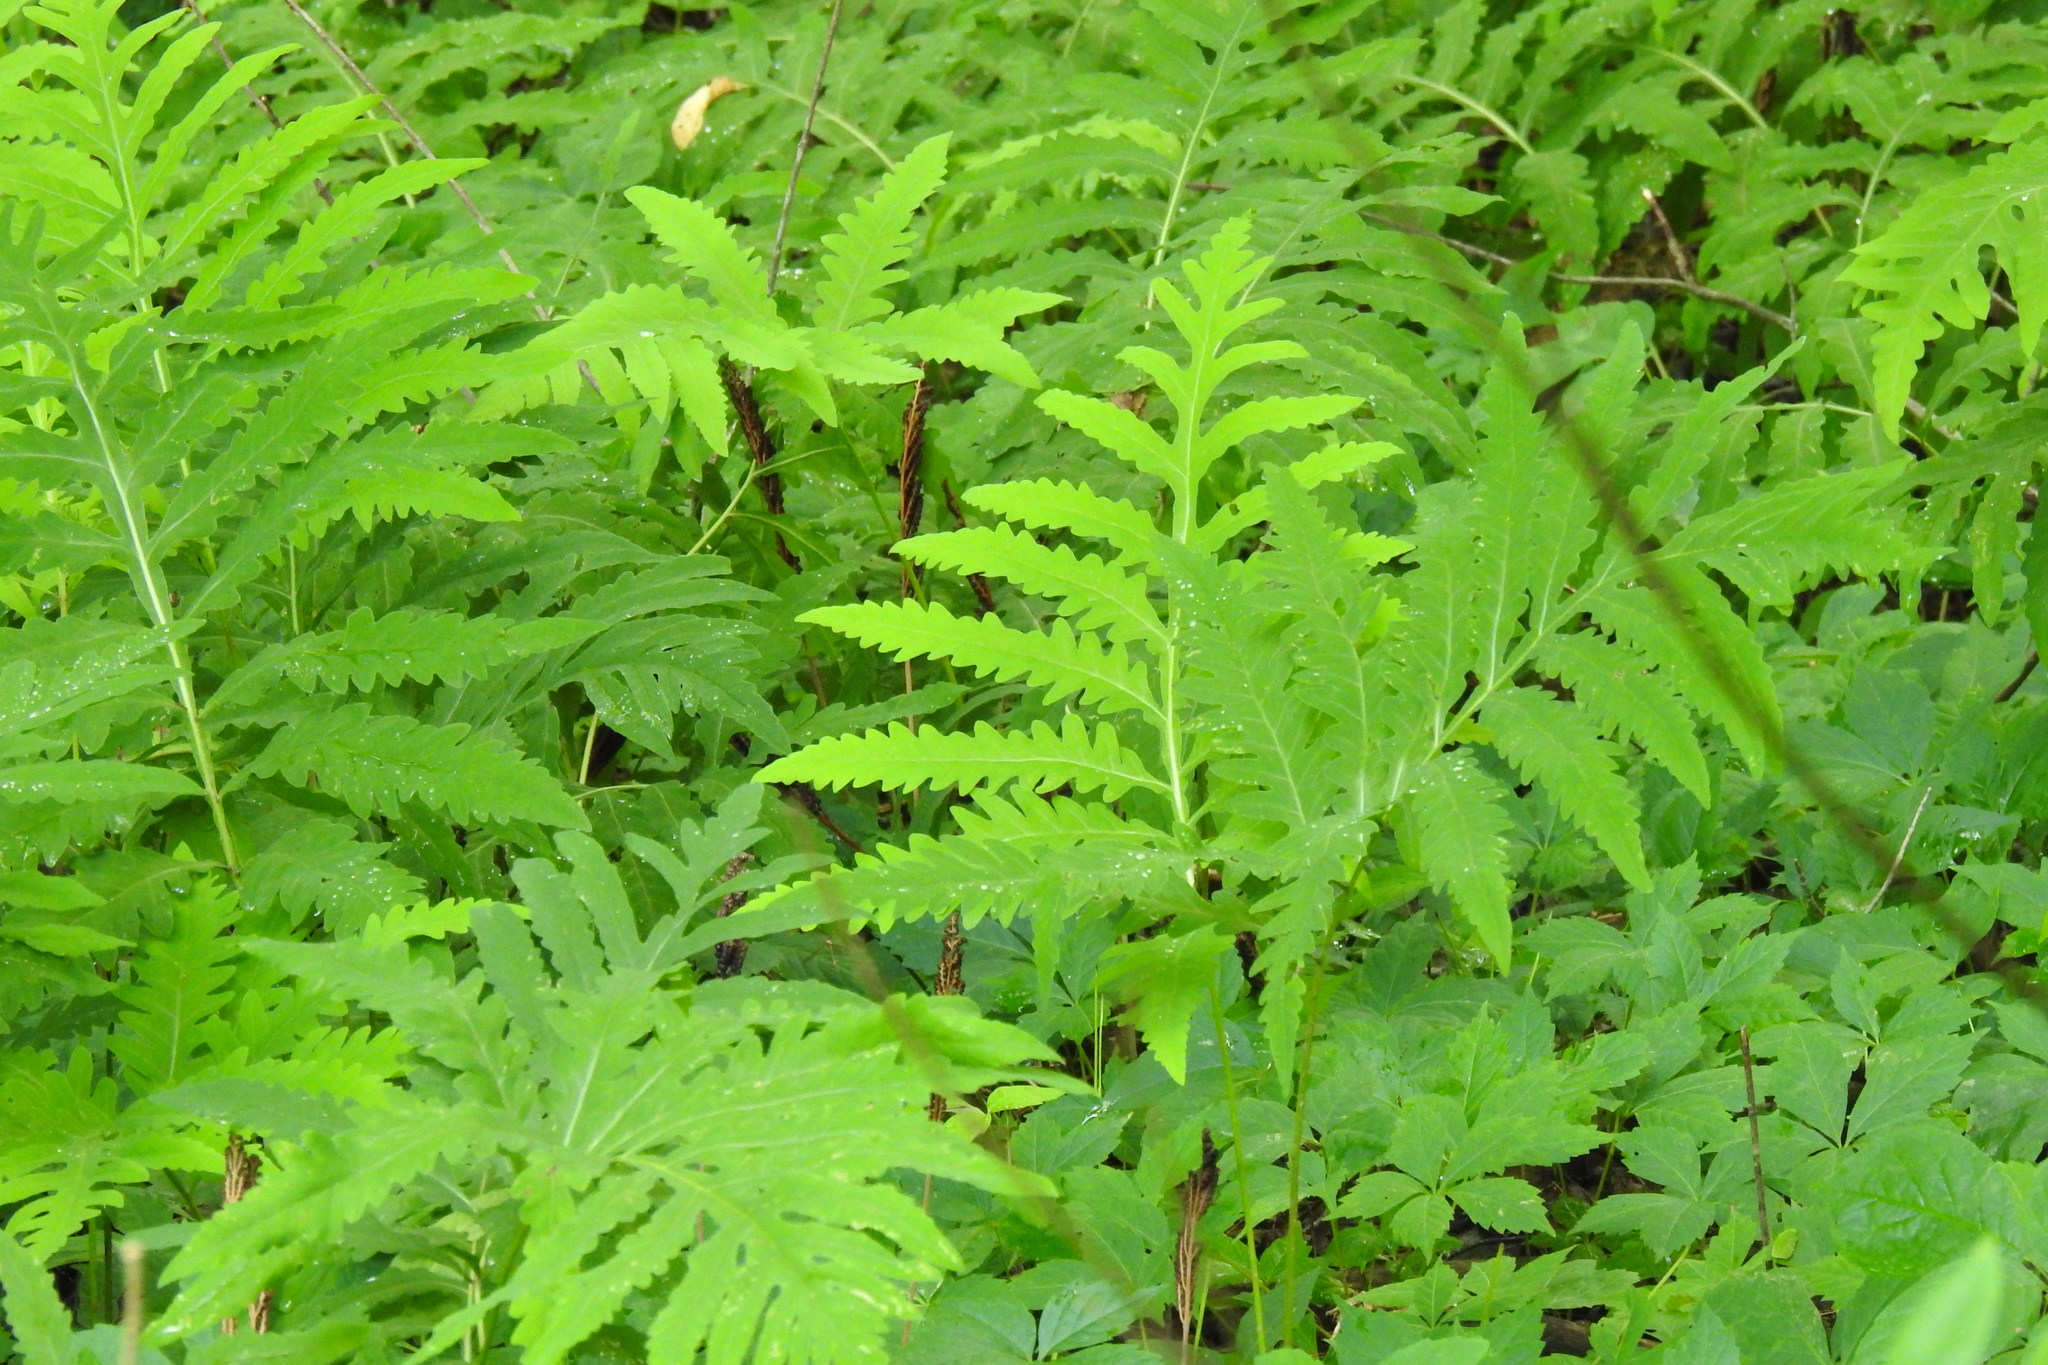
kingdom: Plantae
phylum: Tracheophyta
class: Polypodiopsida
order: Polypodiales
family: Onocleaceae
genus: Onoclea
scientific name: Onoclea sensibilis
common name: Sensitive fern
